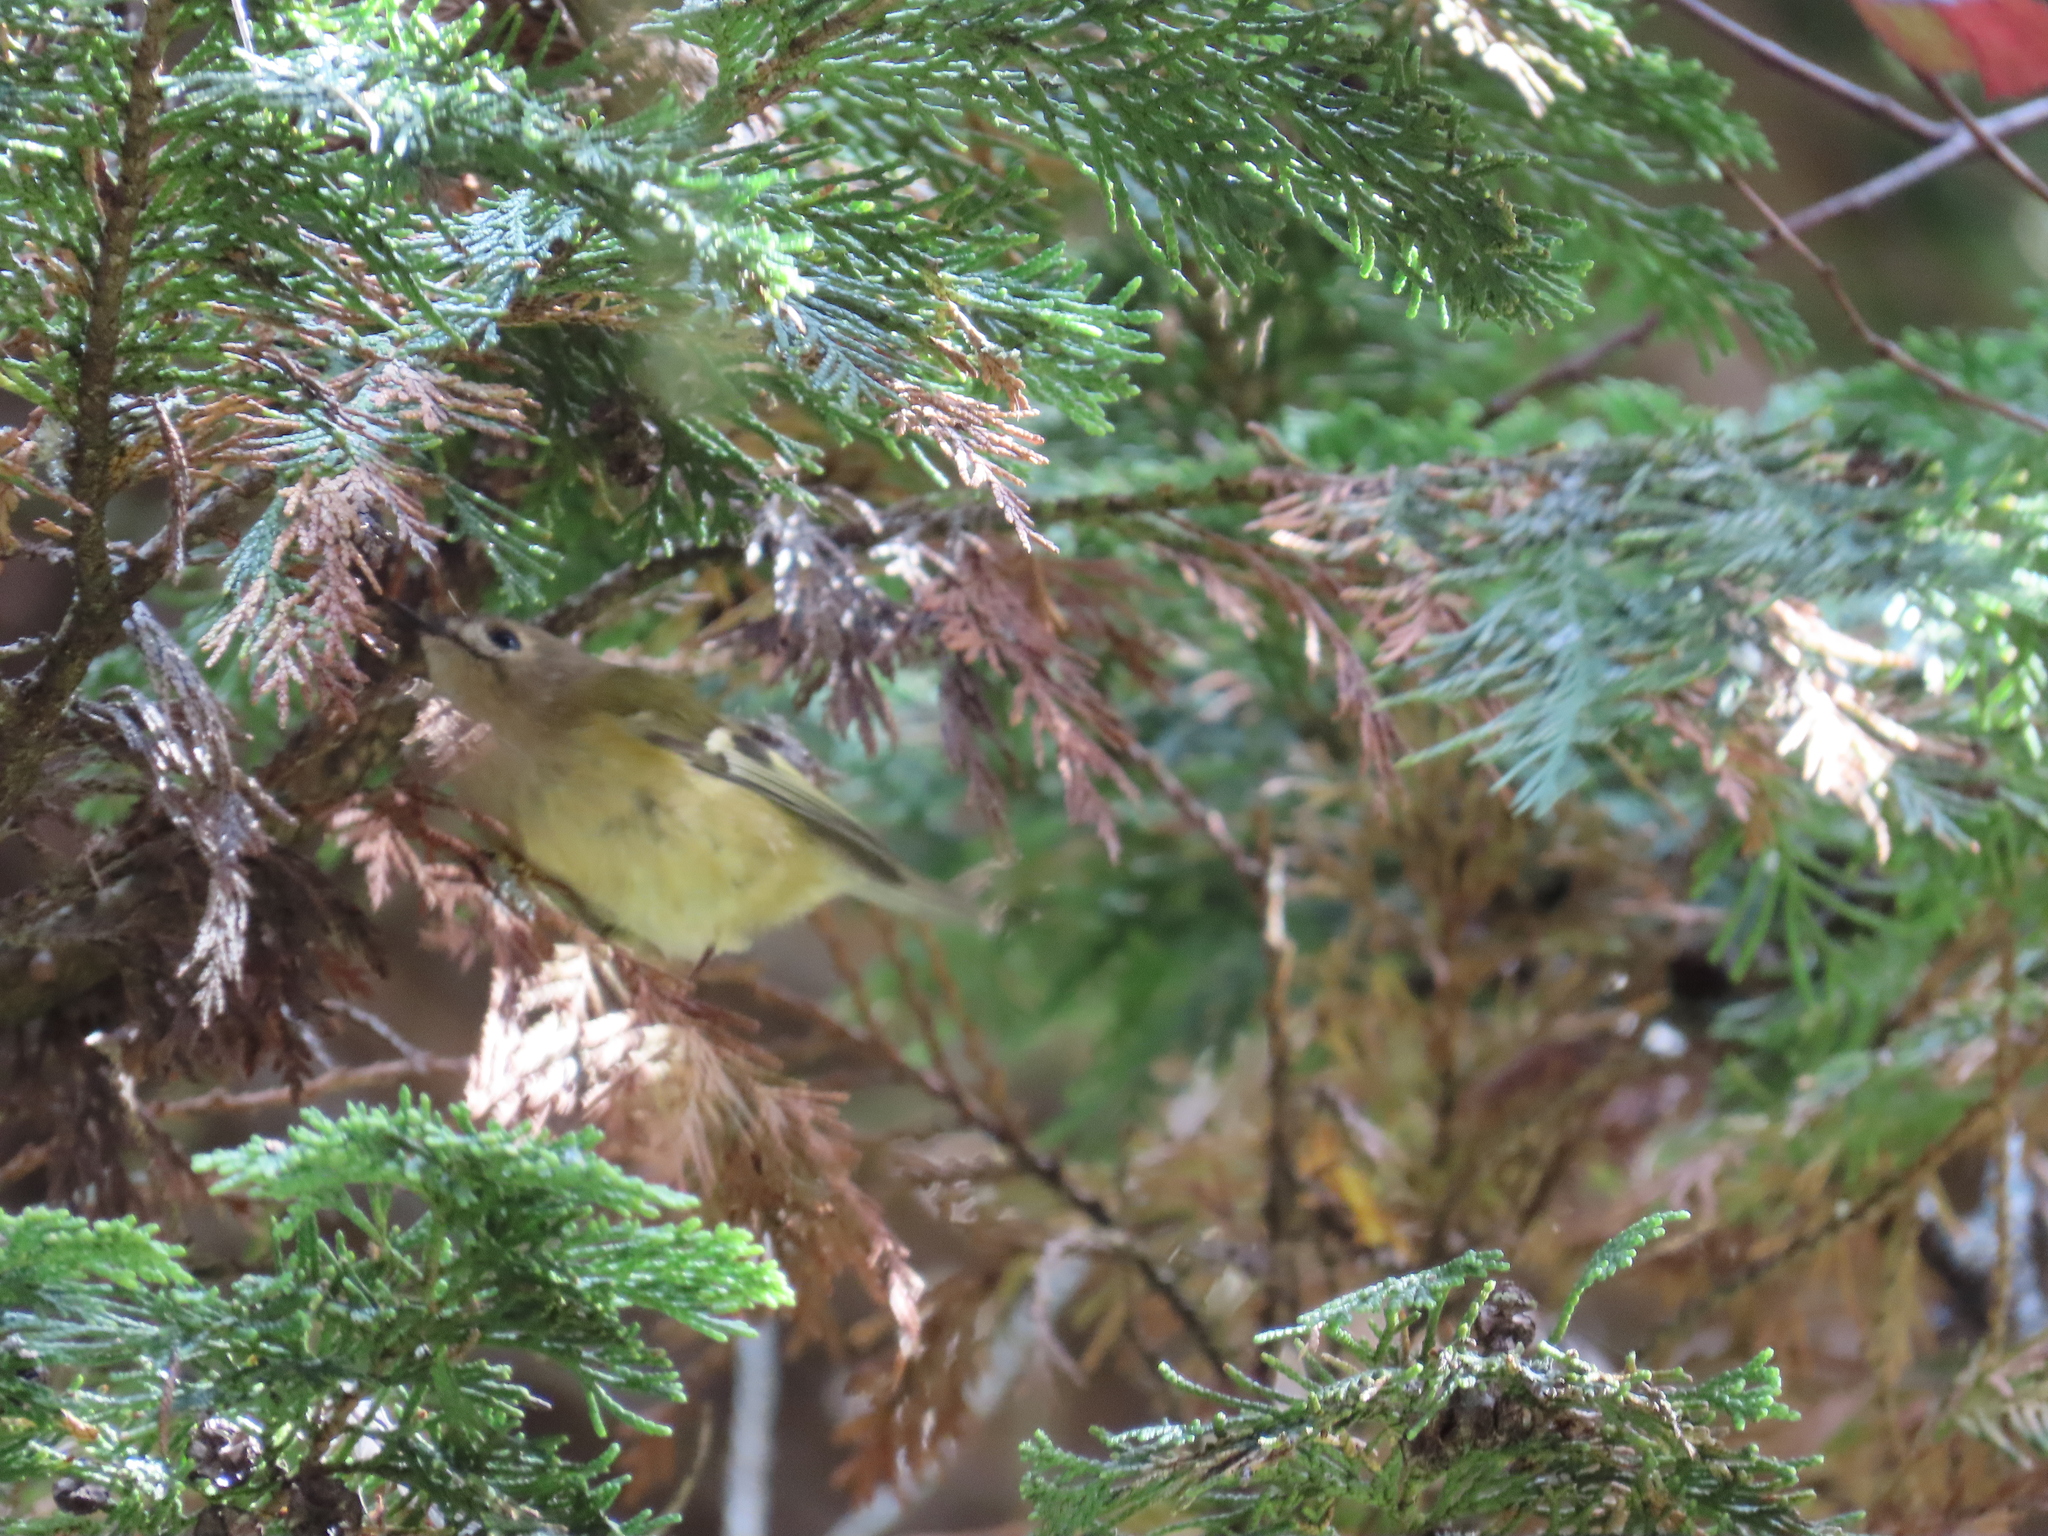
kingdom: Animalia
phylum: Chordata
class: Aves
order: Passeriformes
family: Regulidae
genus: Regulus
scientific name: Regulus regulus
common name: Goldcrest
